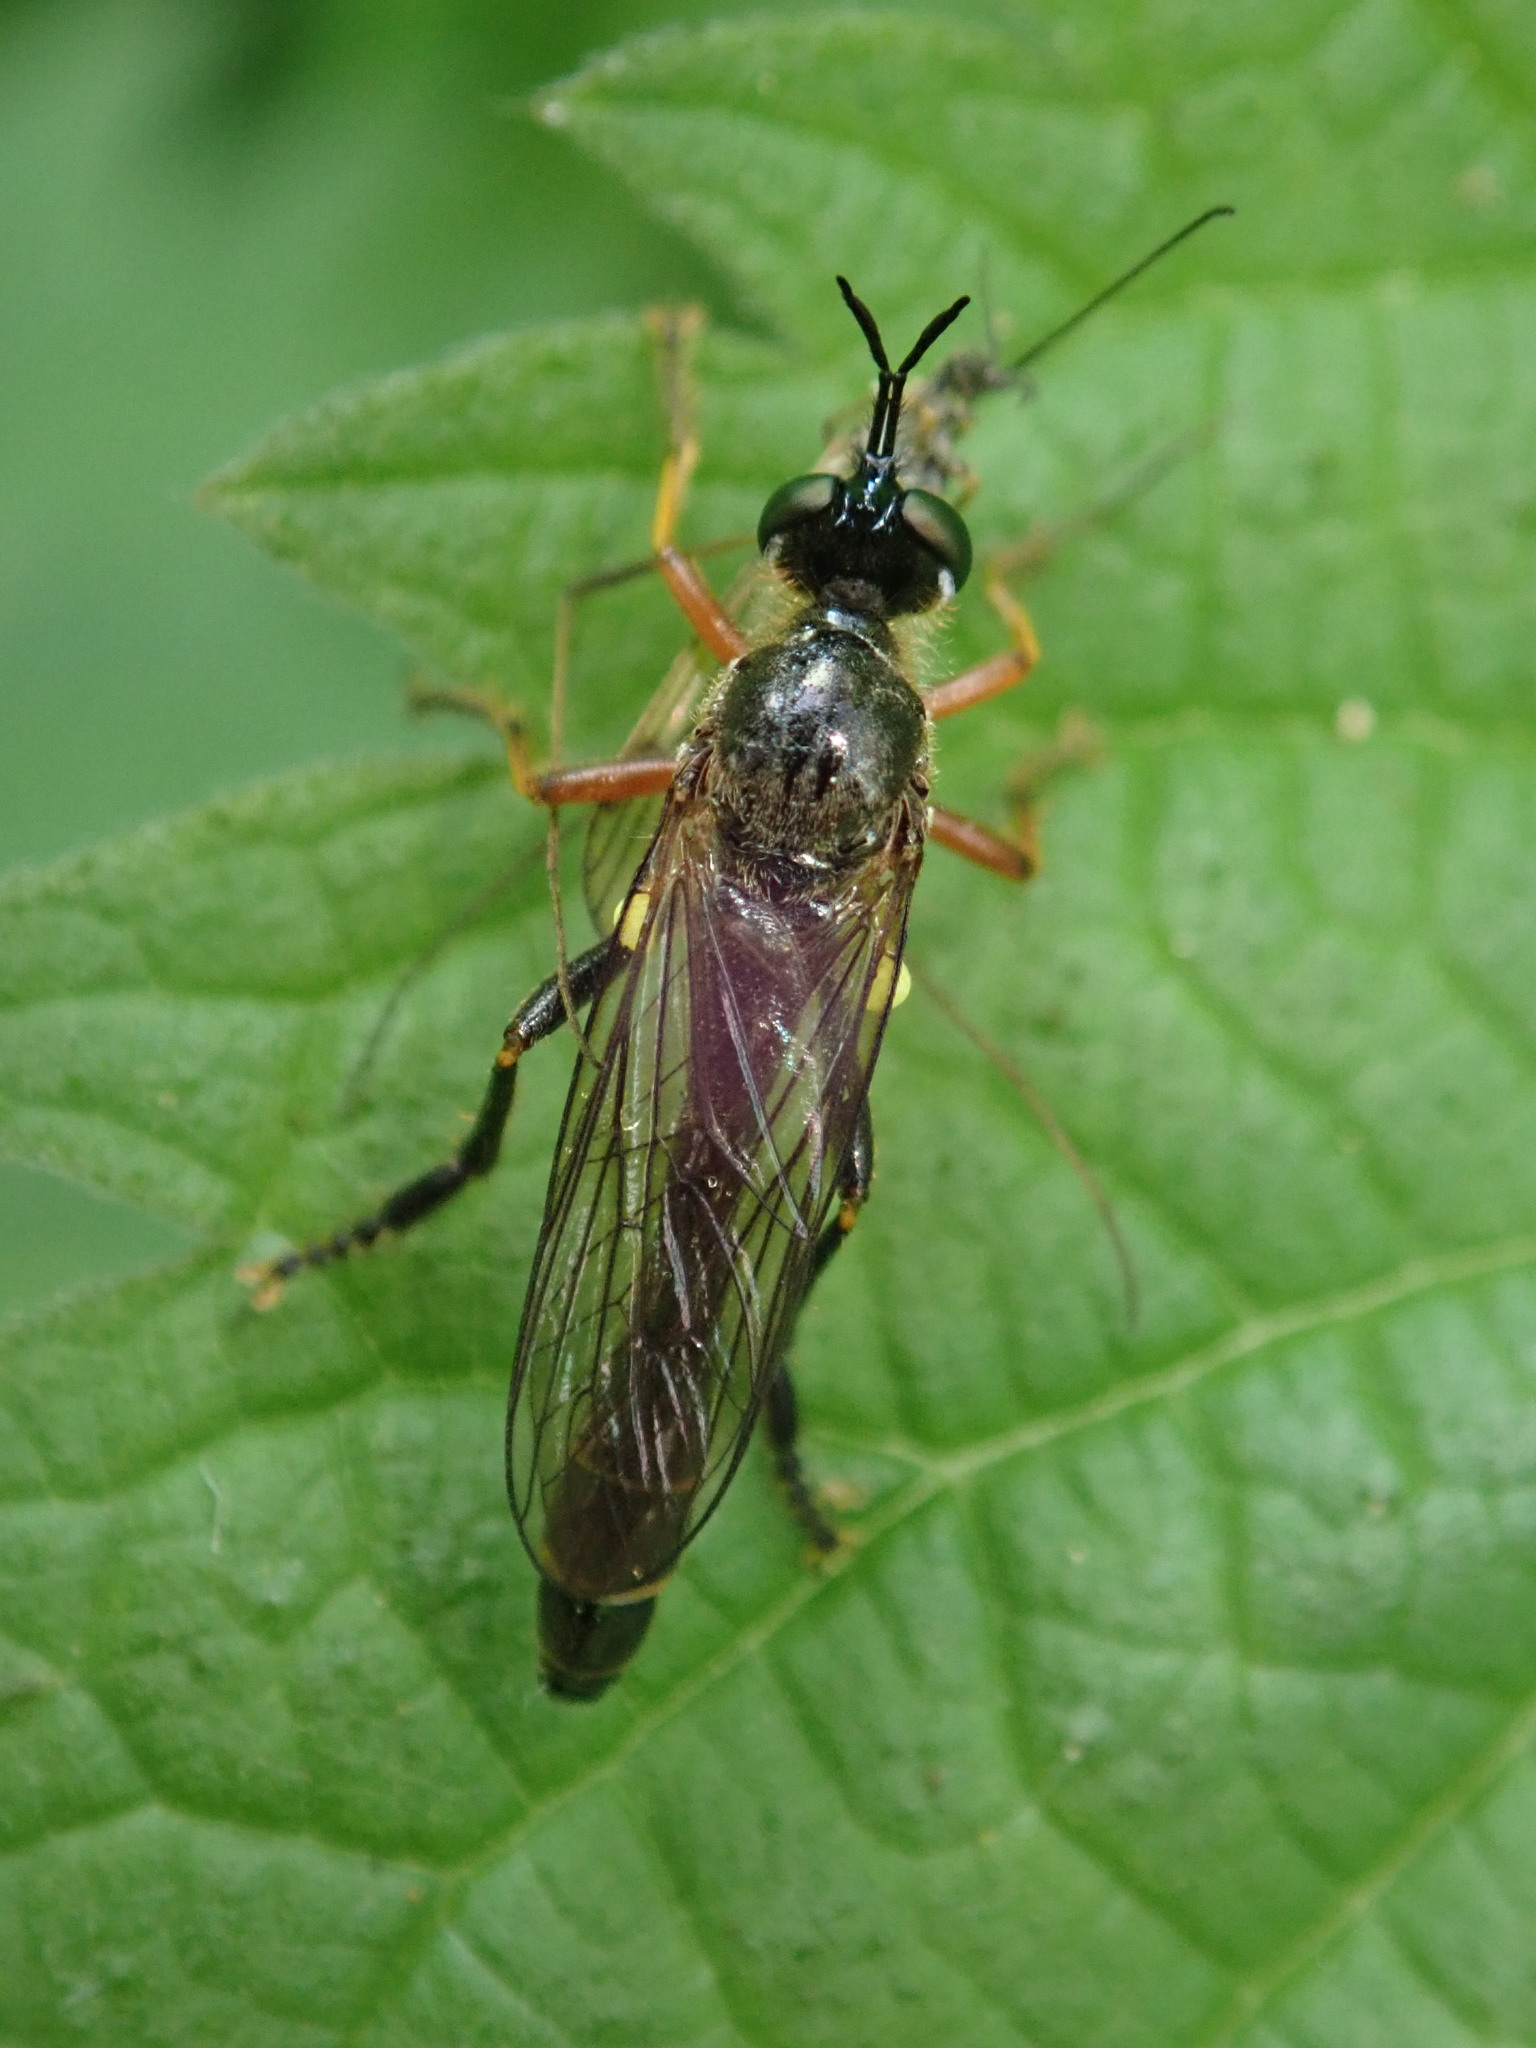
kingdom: Animalia
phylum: Arthropoda
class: Insecta
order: Diptera
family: Asilidae
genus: Dioctria
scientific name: Dioctria rufipes
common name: Common red-legged robberfly
